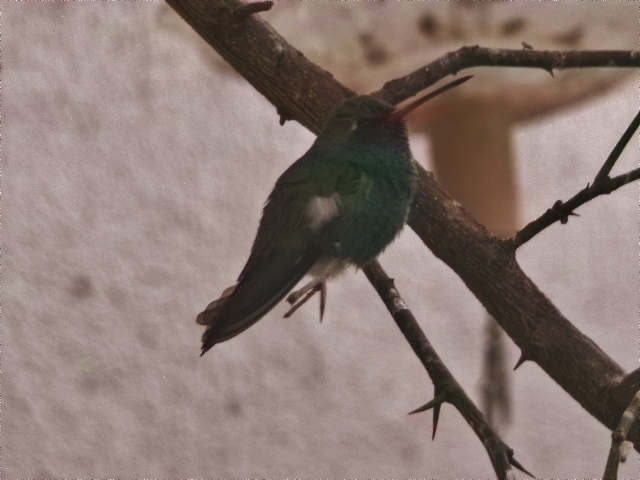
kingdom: Animalia
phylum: Chordata
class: Aves
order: Apodiformes
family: Trochilidae
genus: Cynanthus
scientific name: Cynanthus latirostris
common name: Broad-billed hummingbird
